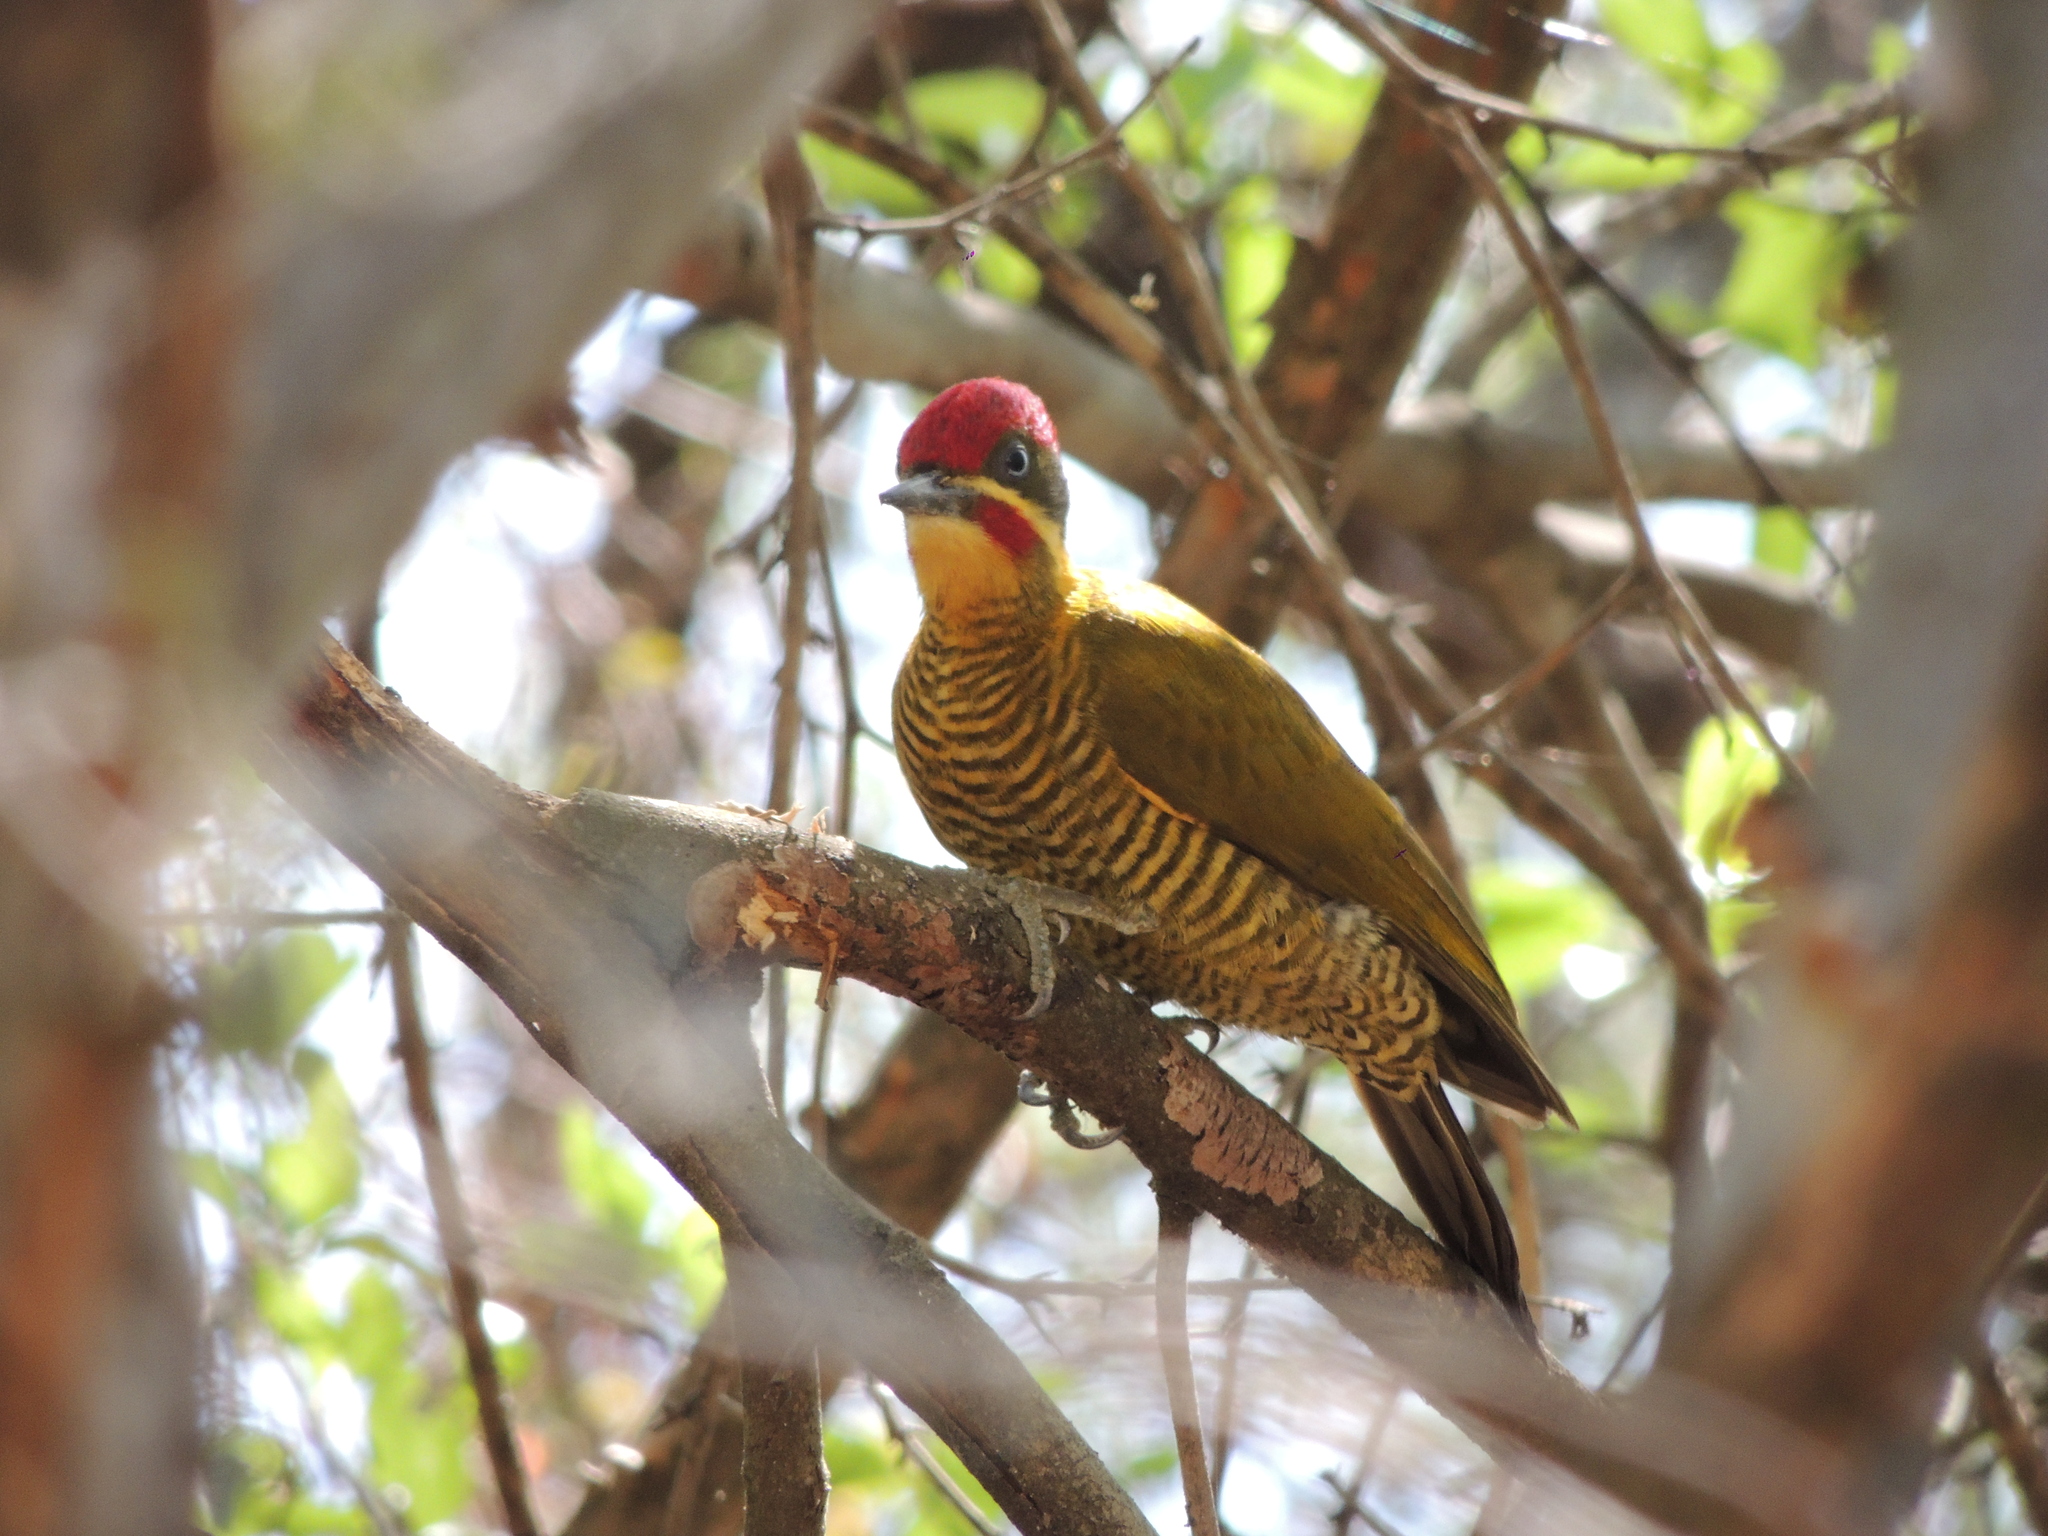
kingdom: Animalia
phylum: Chordata
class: Aves
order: Piciformes
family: Picidae
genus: Piculus
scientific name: Piculus chrysochloros
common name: Golden-green woodpecker
